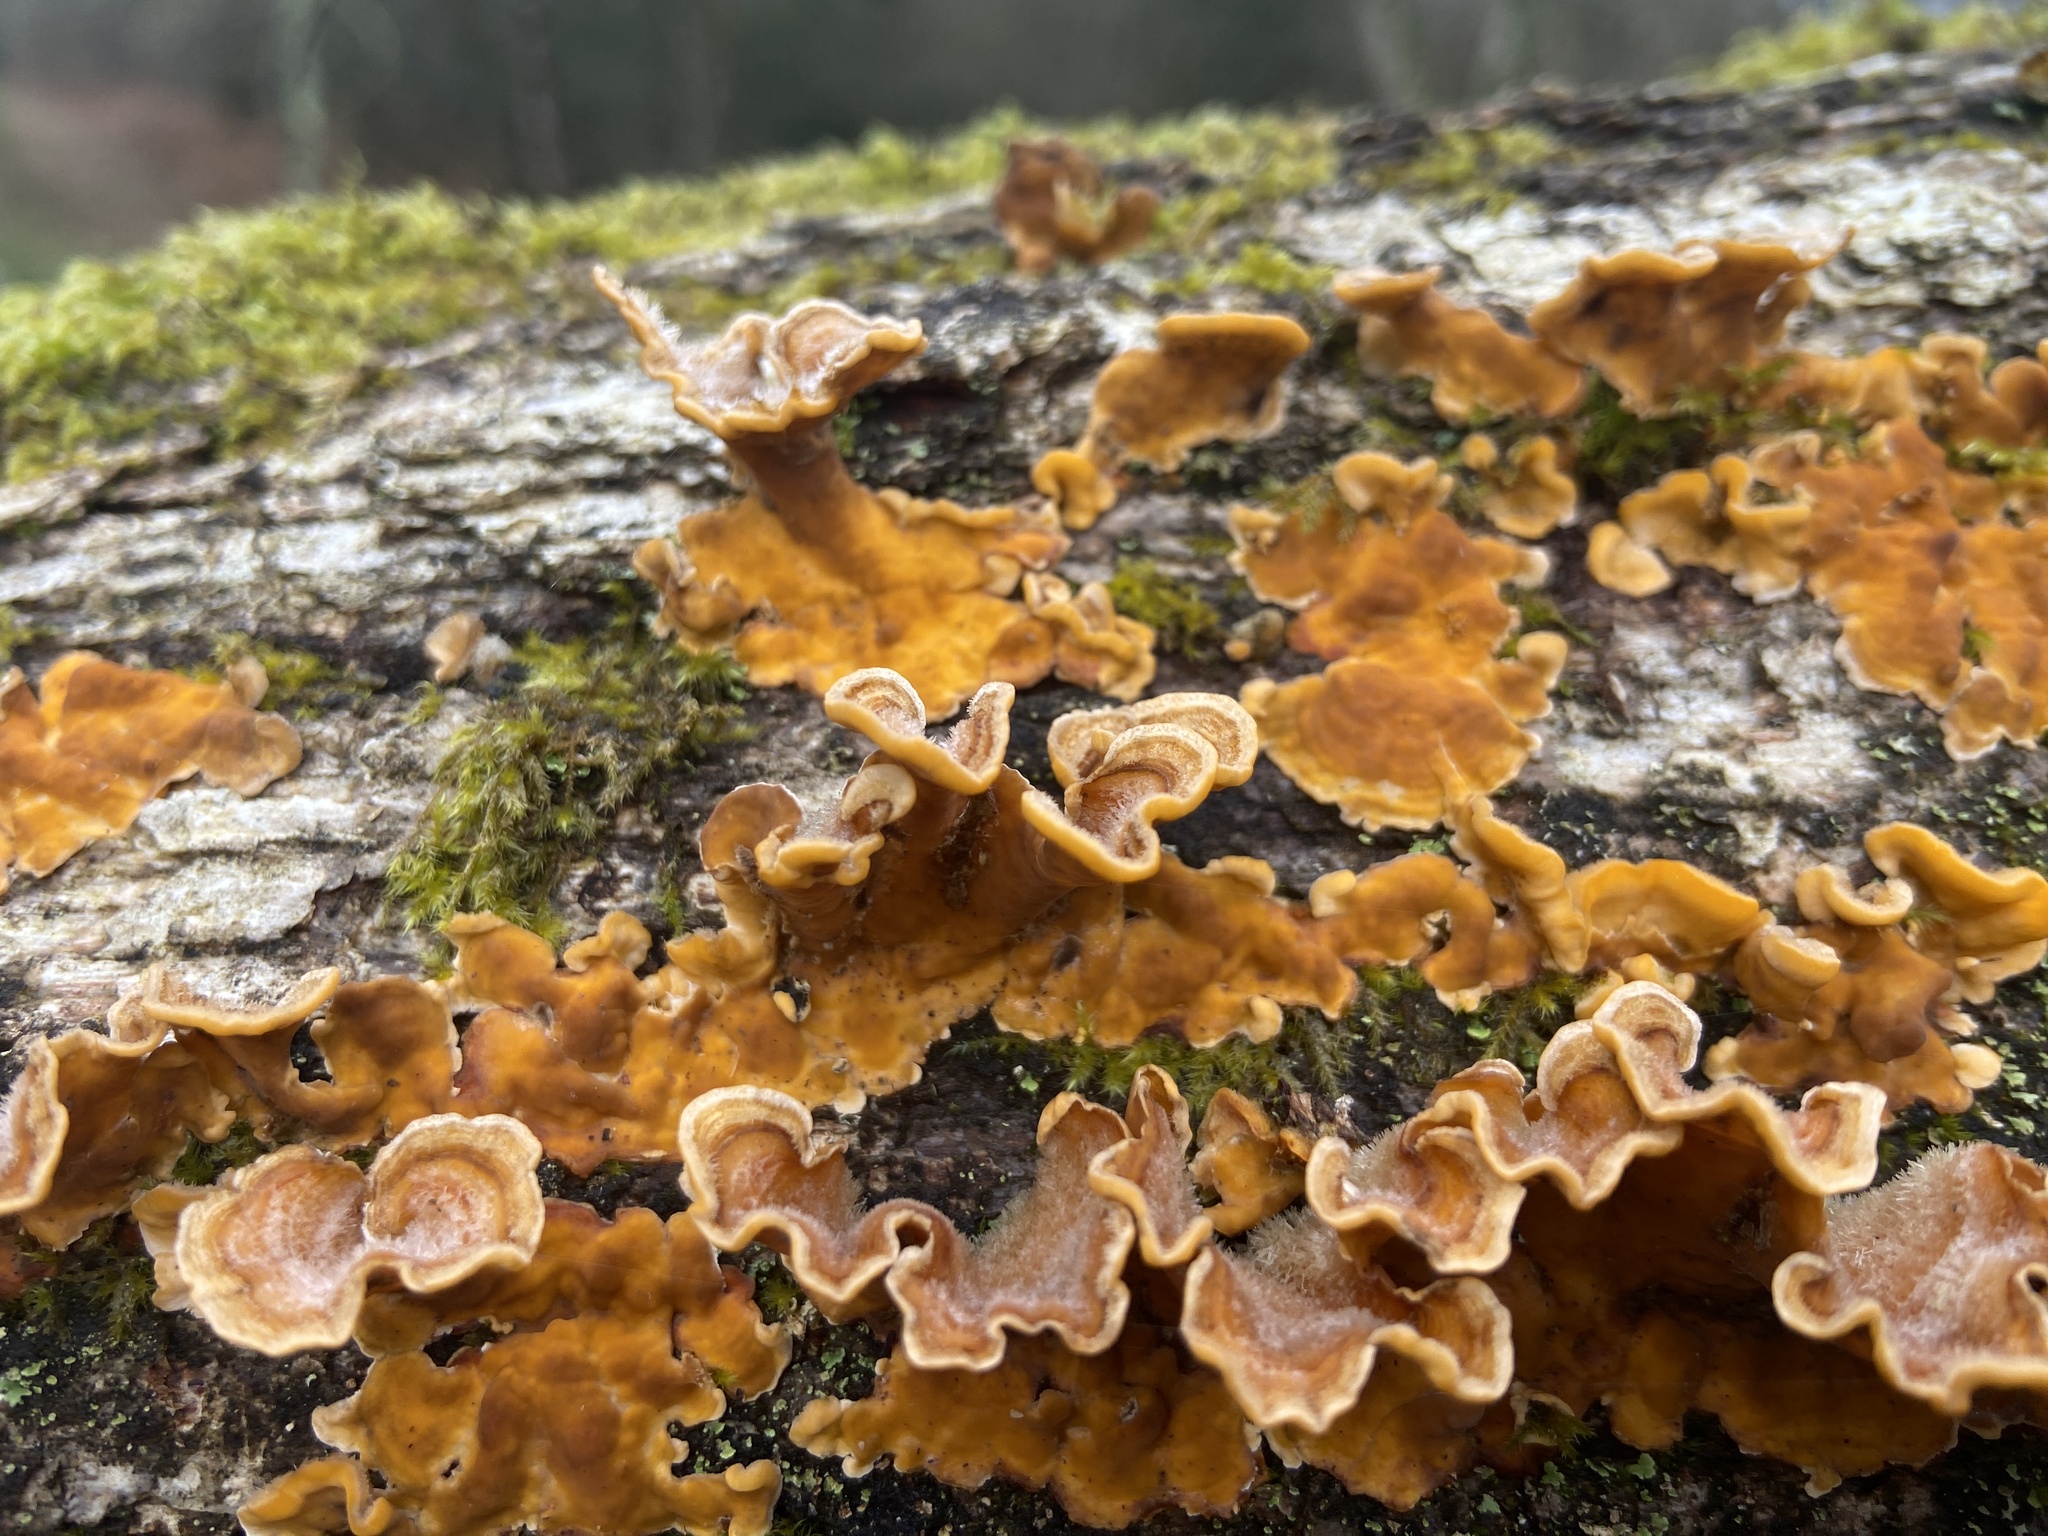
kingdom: Fungi
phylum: Basidiomycota
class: Agaricomycetes
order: Russulales
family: Stereaceae
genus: Stereum
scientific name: Stereum hirsutum
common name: Hairy curtain crust
